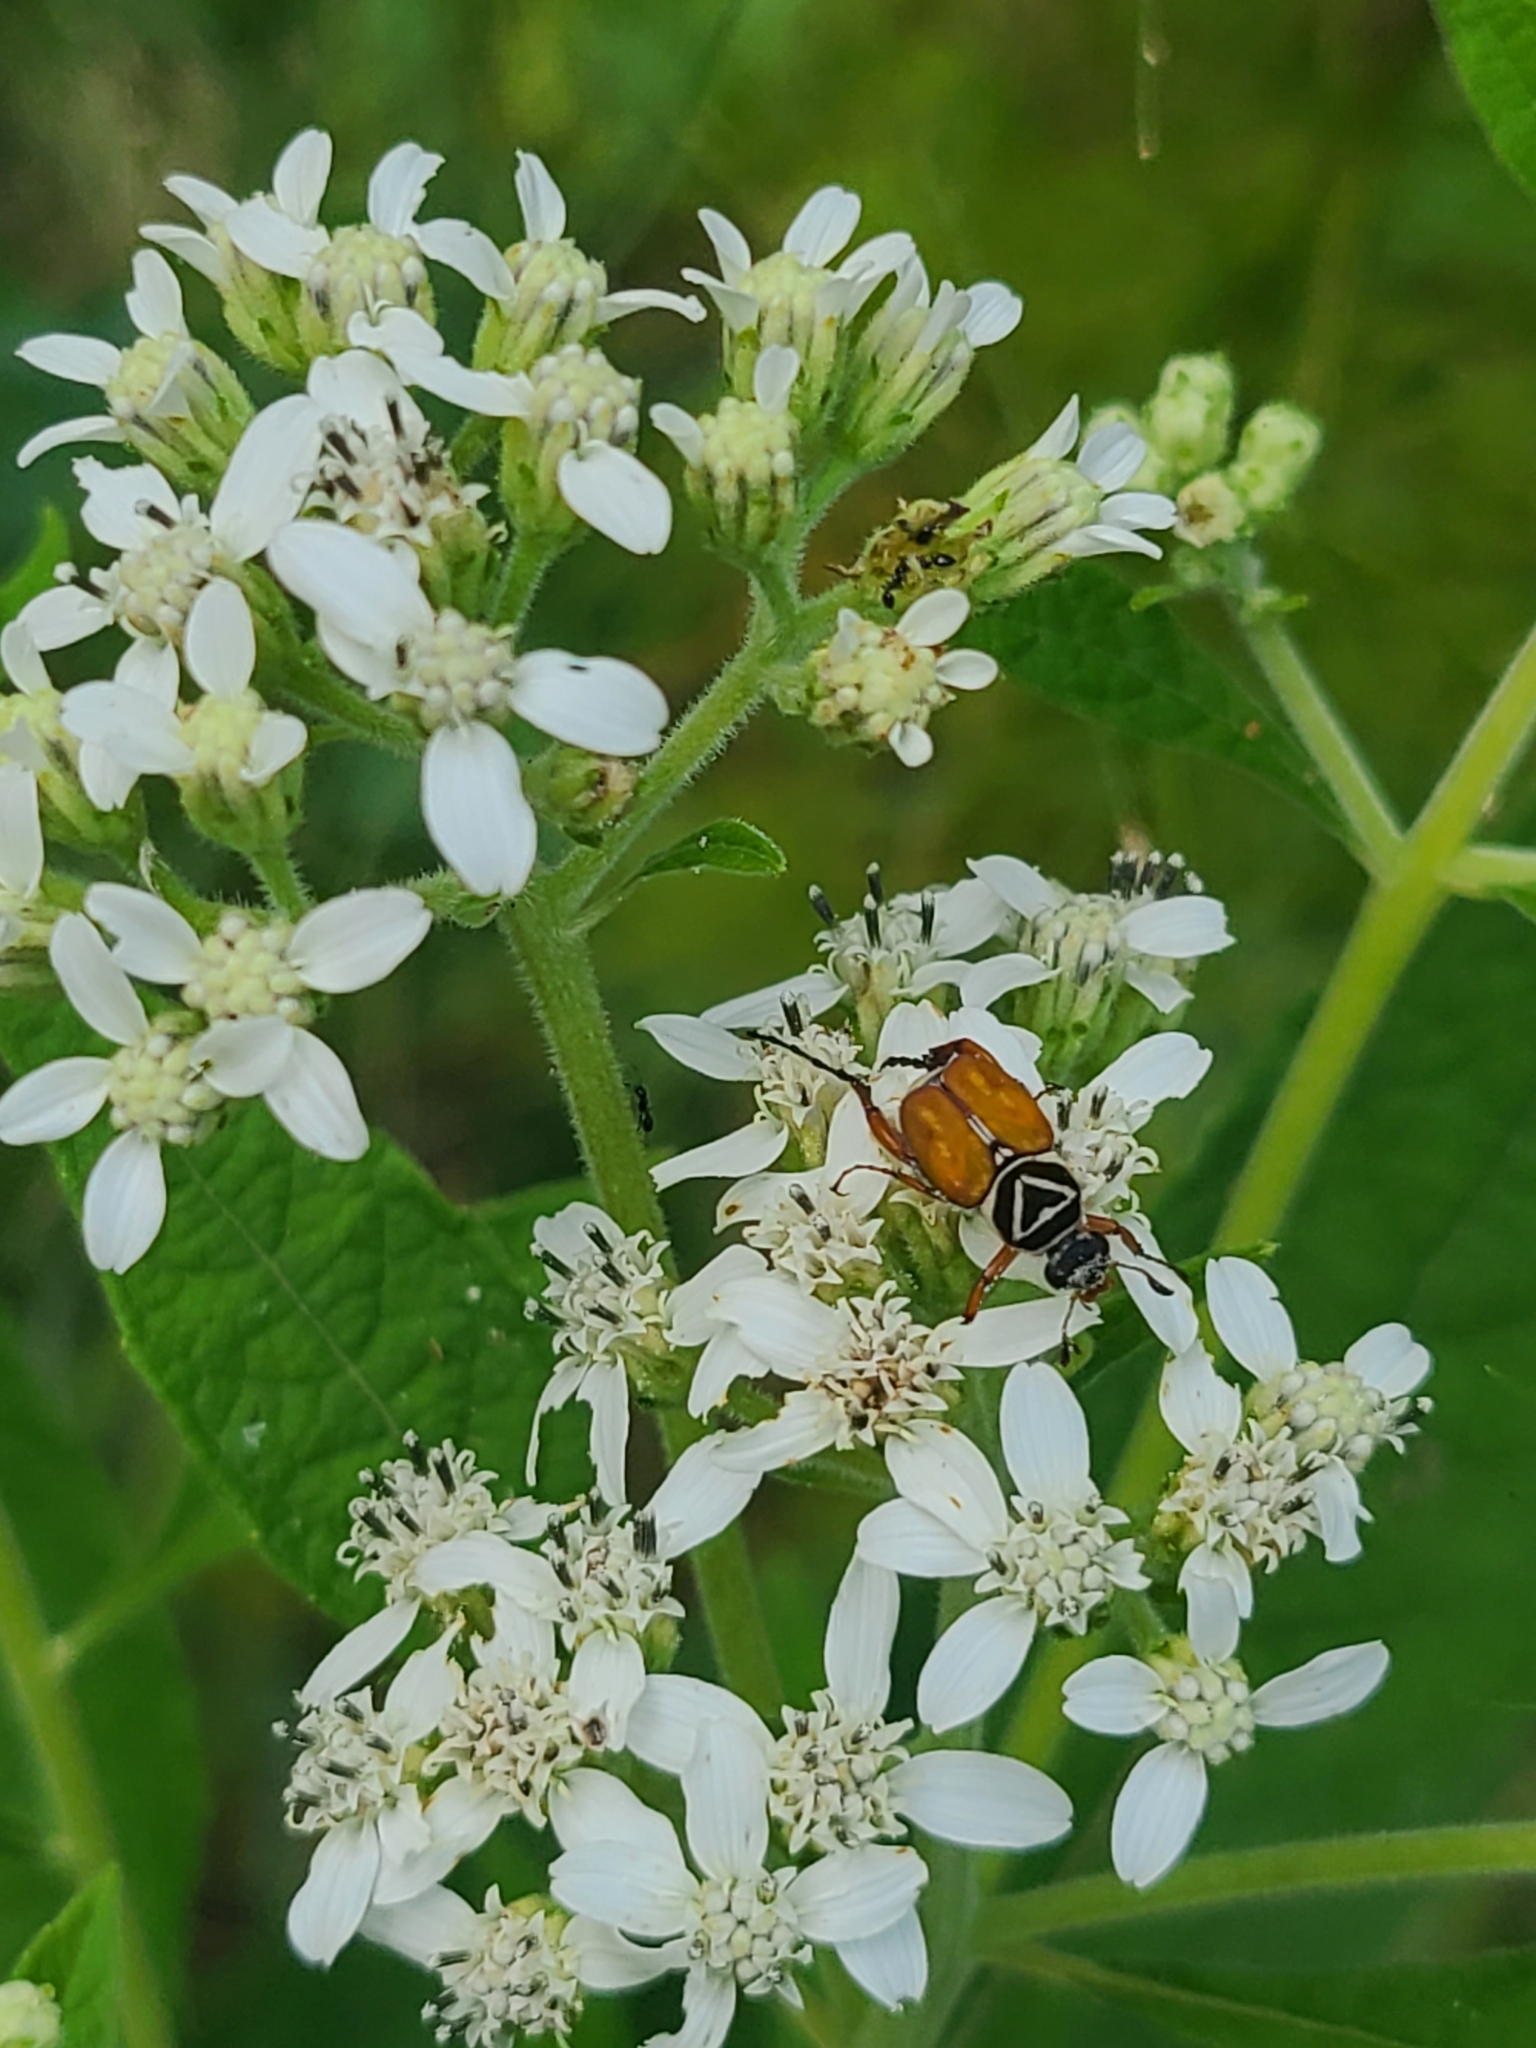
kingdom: Plantae
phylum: Tracheophyta
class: Magnoliopsida
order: Asterales
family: Asteraceae
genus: Verbesina
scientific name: Verbesina virginica
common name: Frostweed
